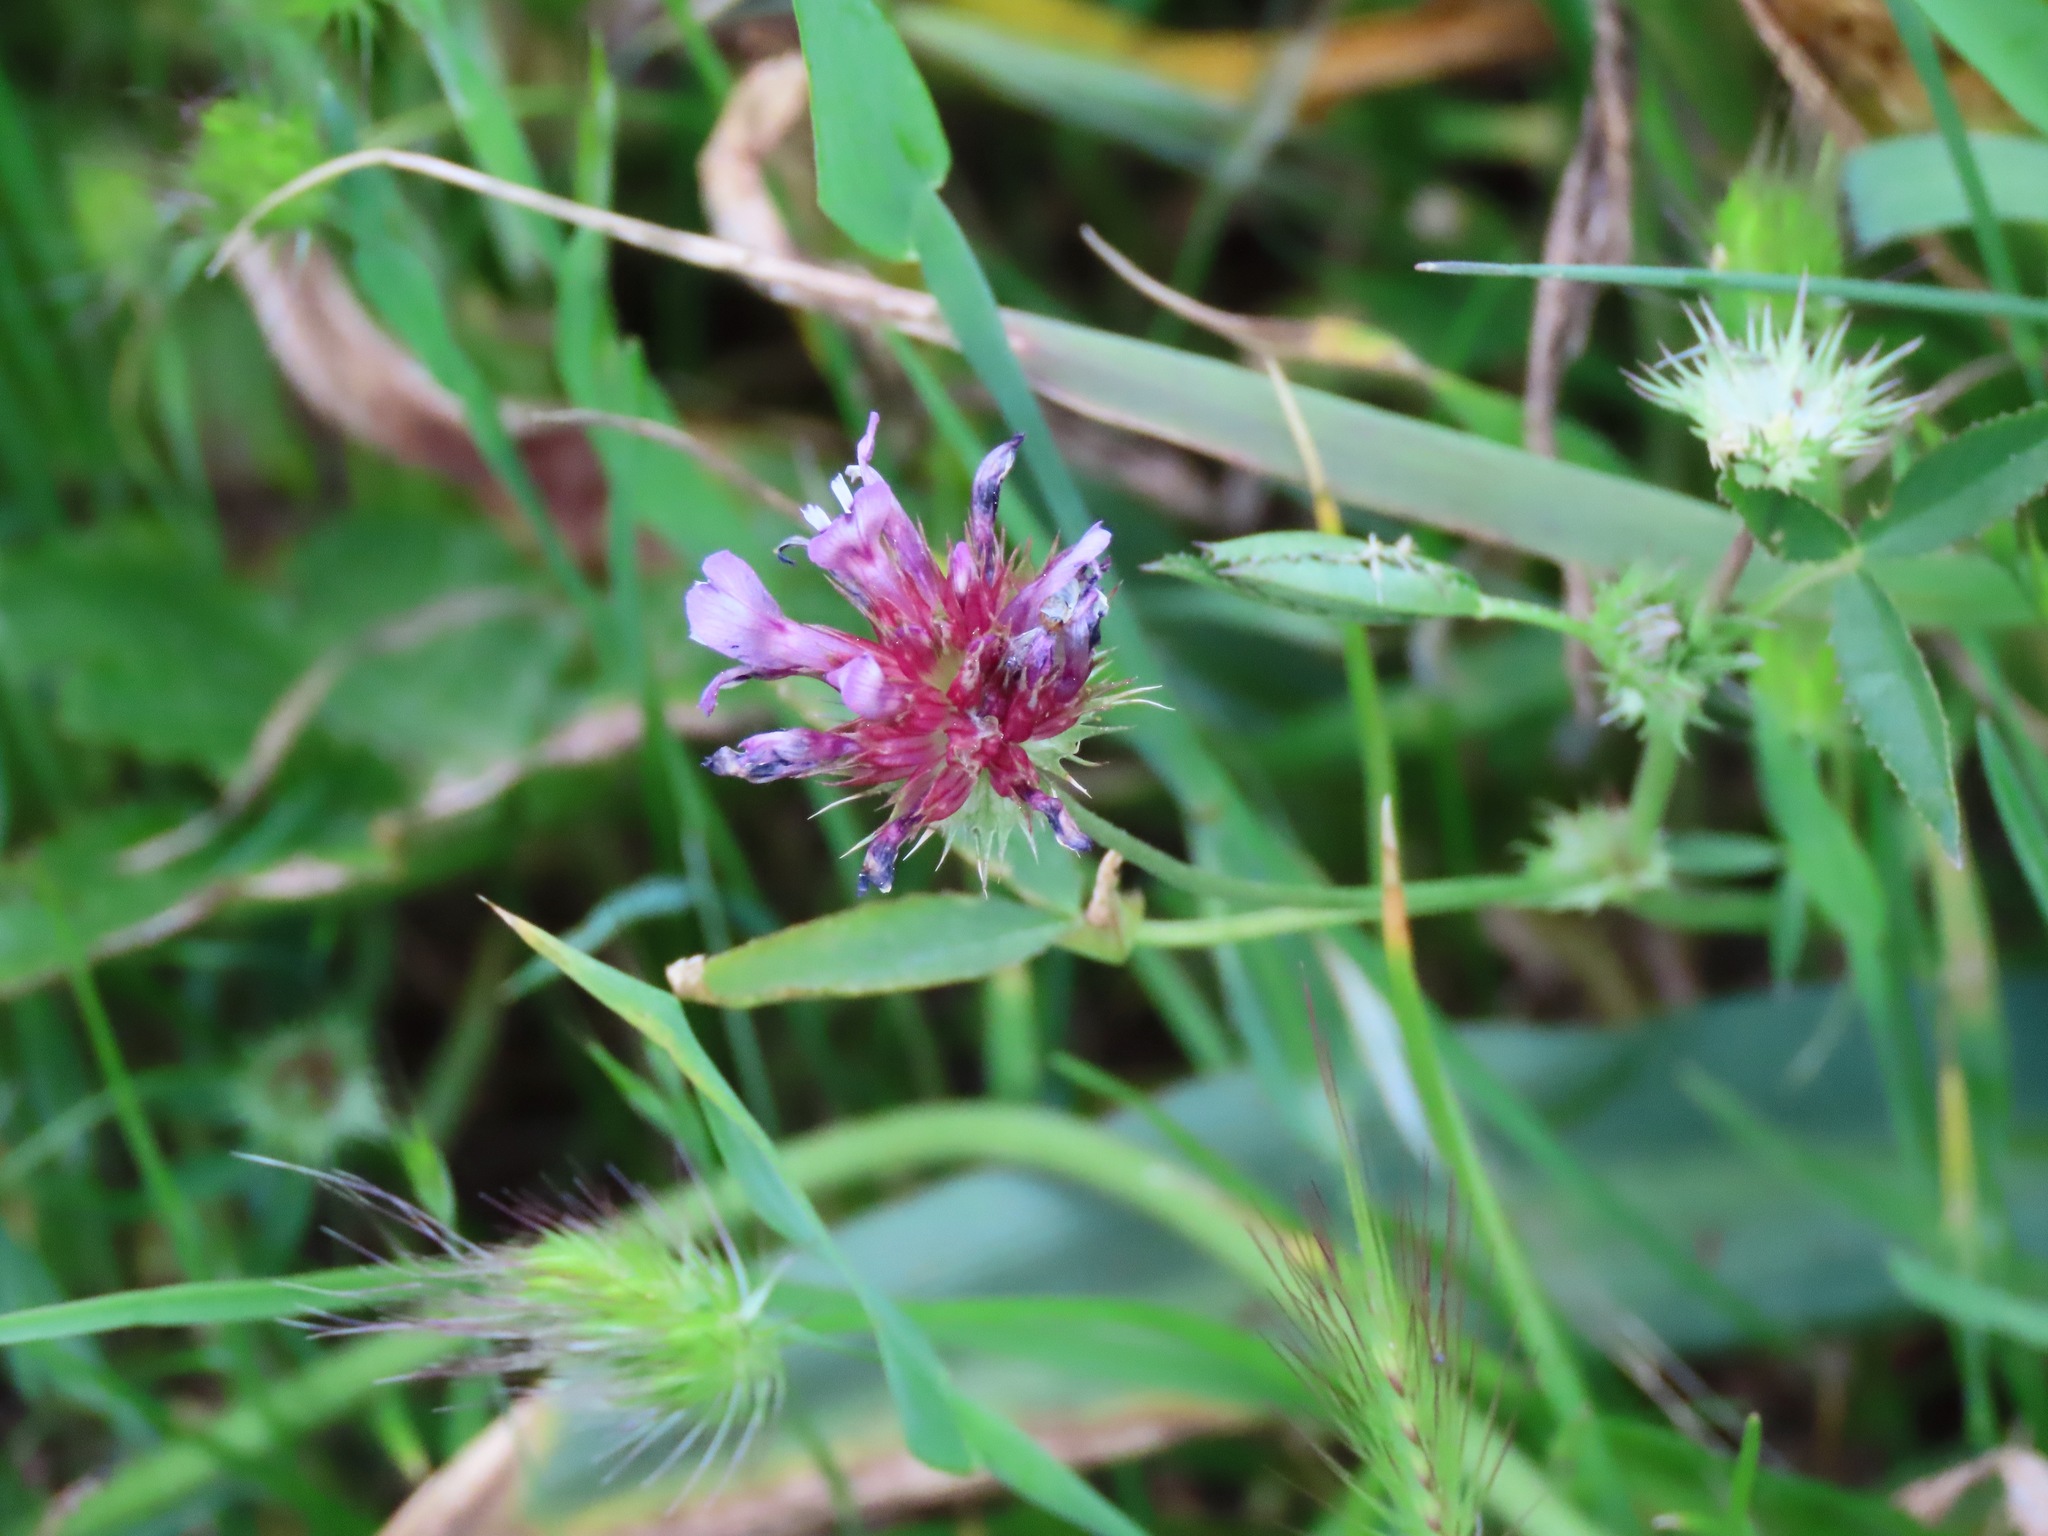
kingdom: Plantae
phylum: Tracheophyta
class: Magnoliopsida
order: Fabales
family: Fabaceae
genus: Trifolium
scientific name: Trifolium willdenovii
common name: Tomcat clover
